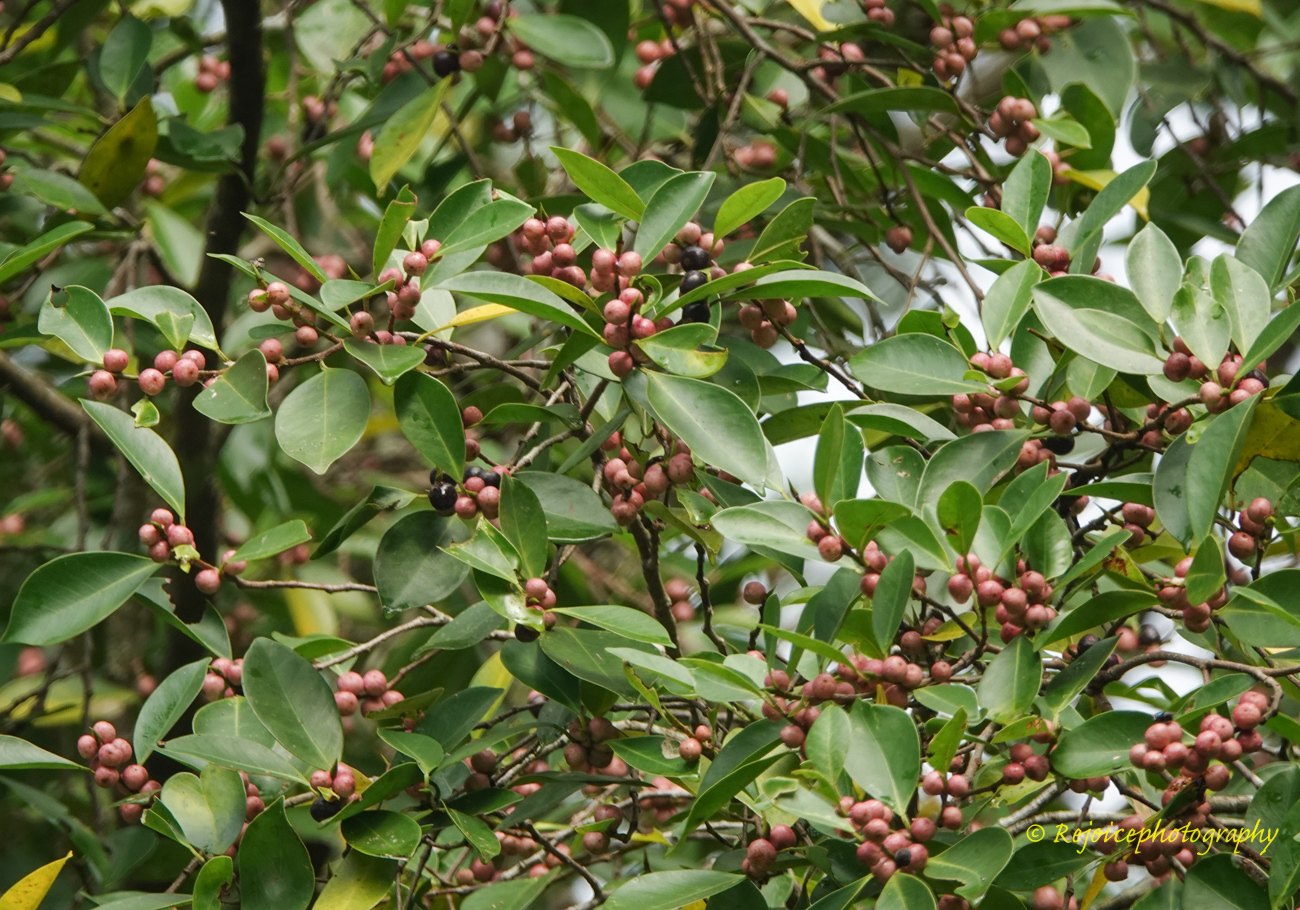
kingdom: Plantae
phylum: Tracheophyta
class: Magnoliopsida
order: Rosales
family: Moraceae
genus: Ficus
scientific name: Ficus benghalensis
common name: Indian banyan
